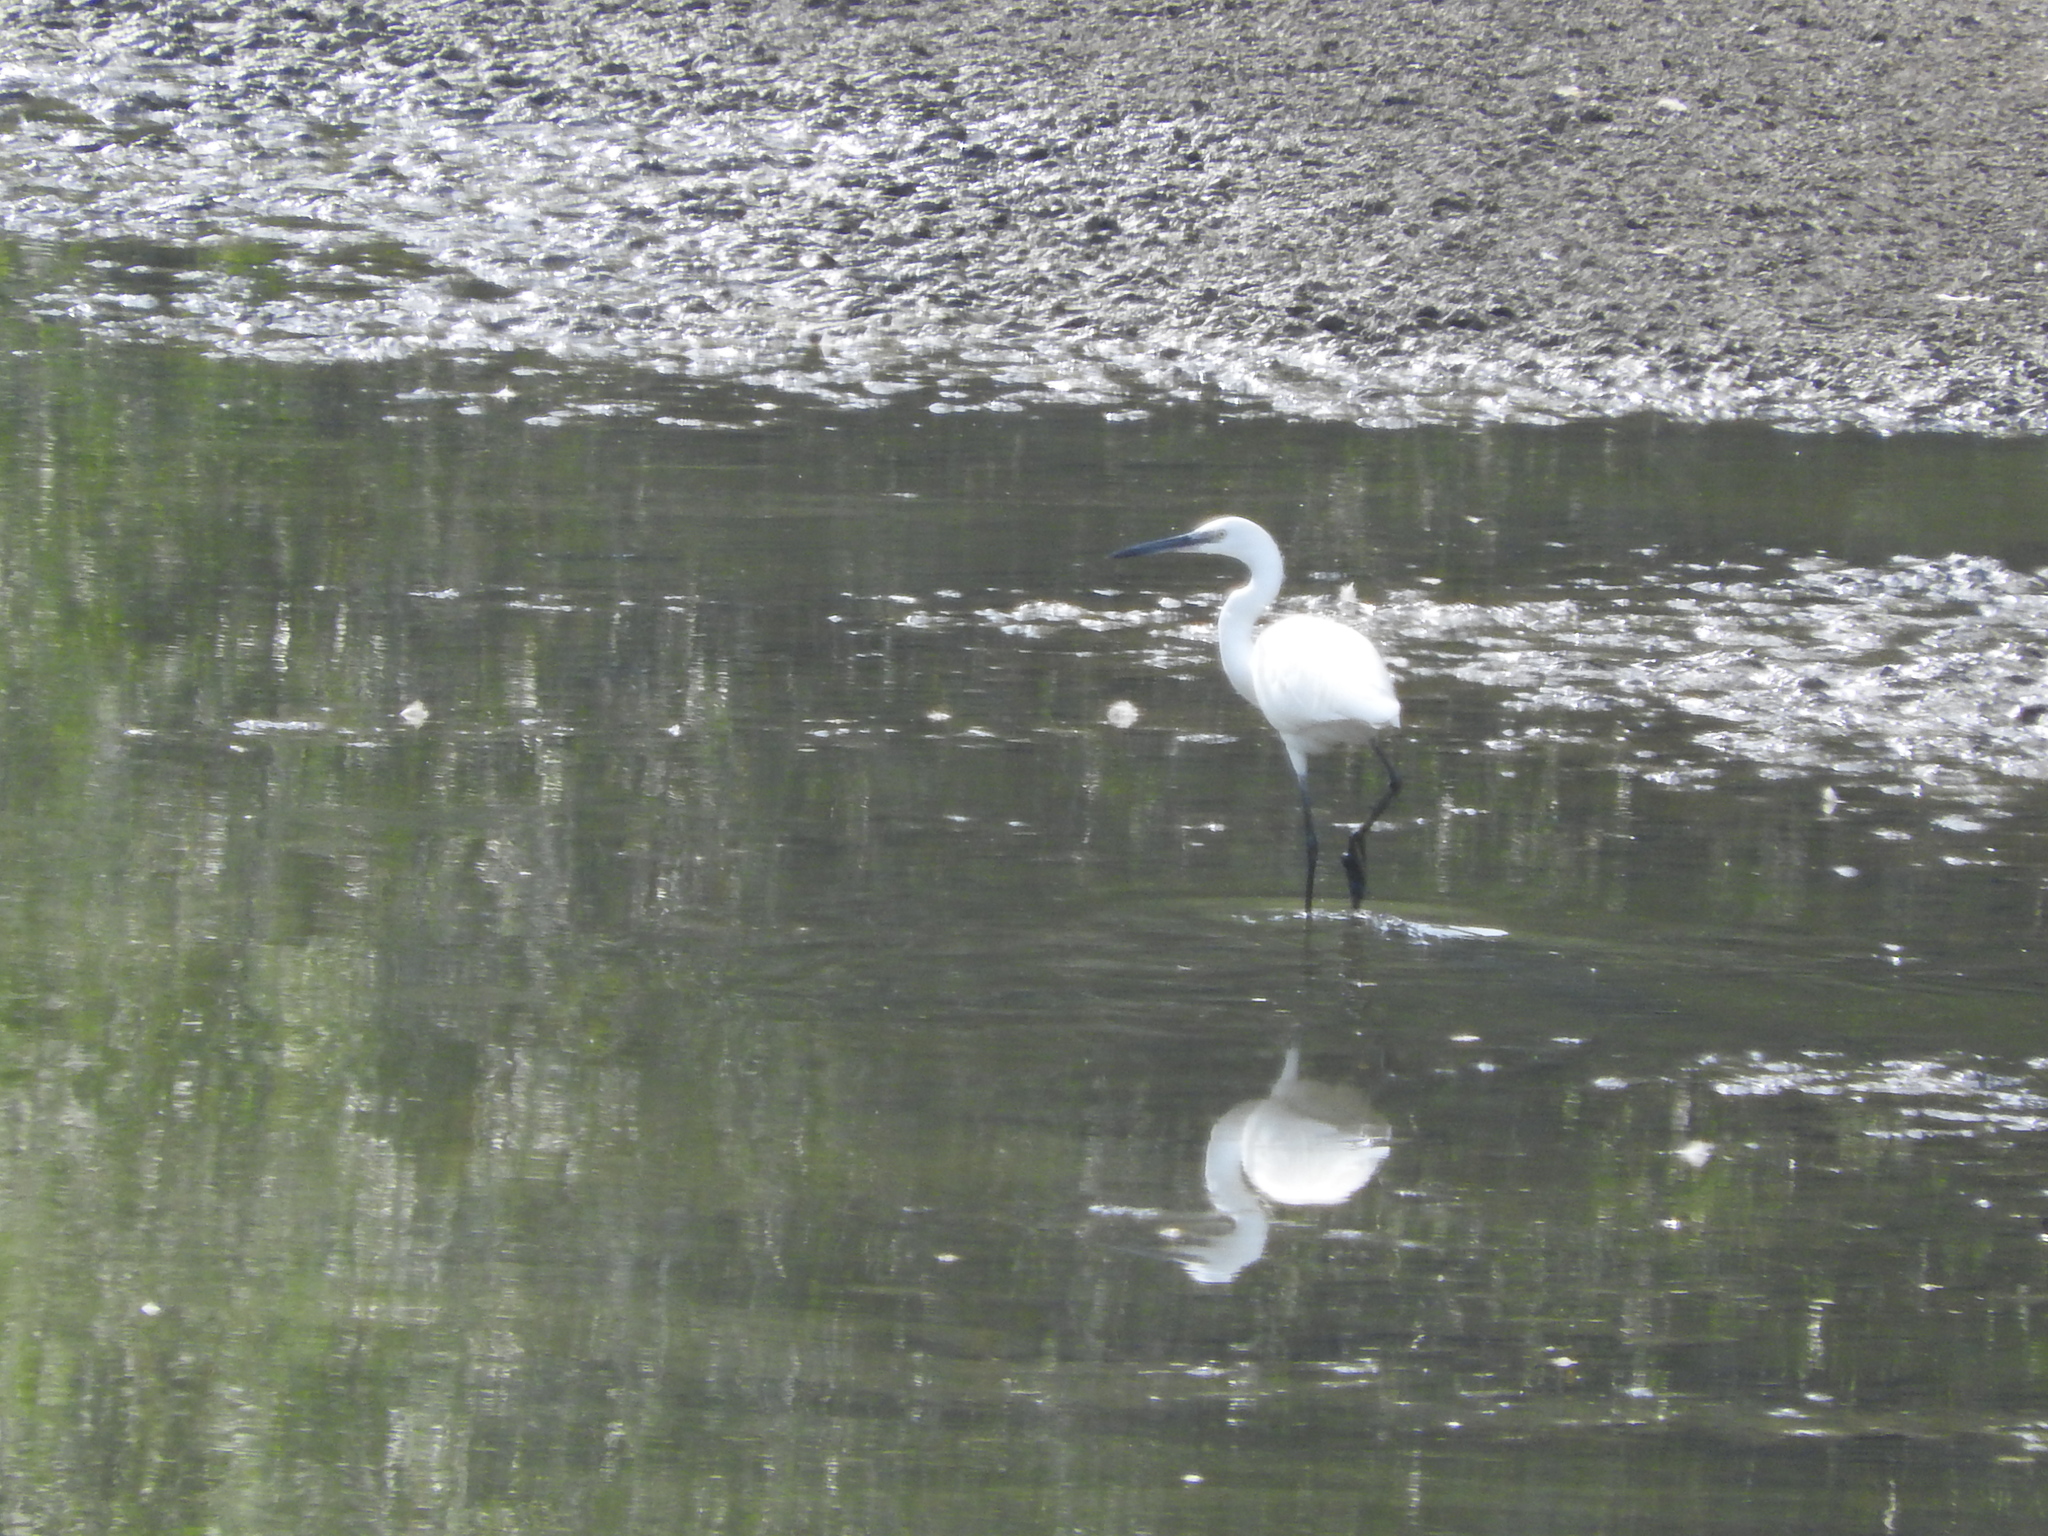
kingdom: Animalia
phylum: Chordata
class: Aves
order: Pelecaniformes
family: Ardeidae
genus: Egretta
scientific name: Egretta garzetta
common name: Little egret
